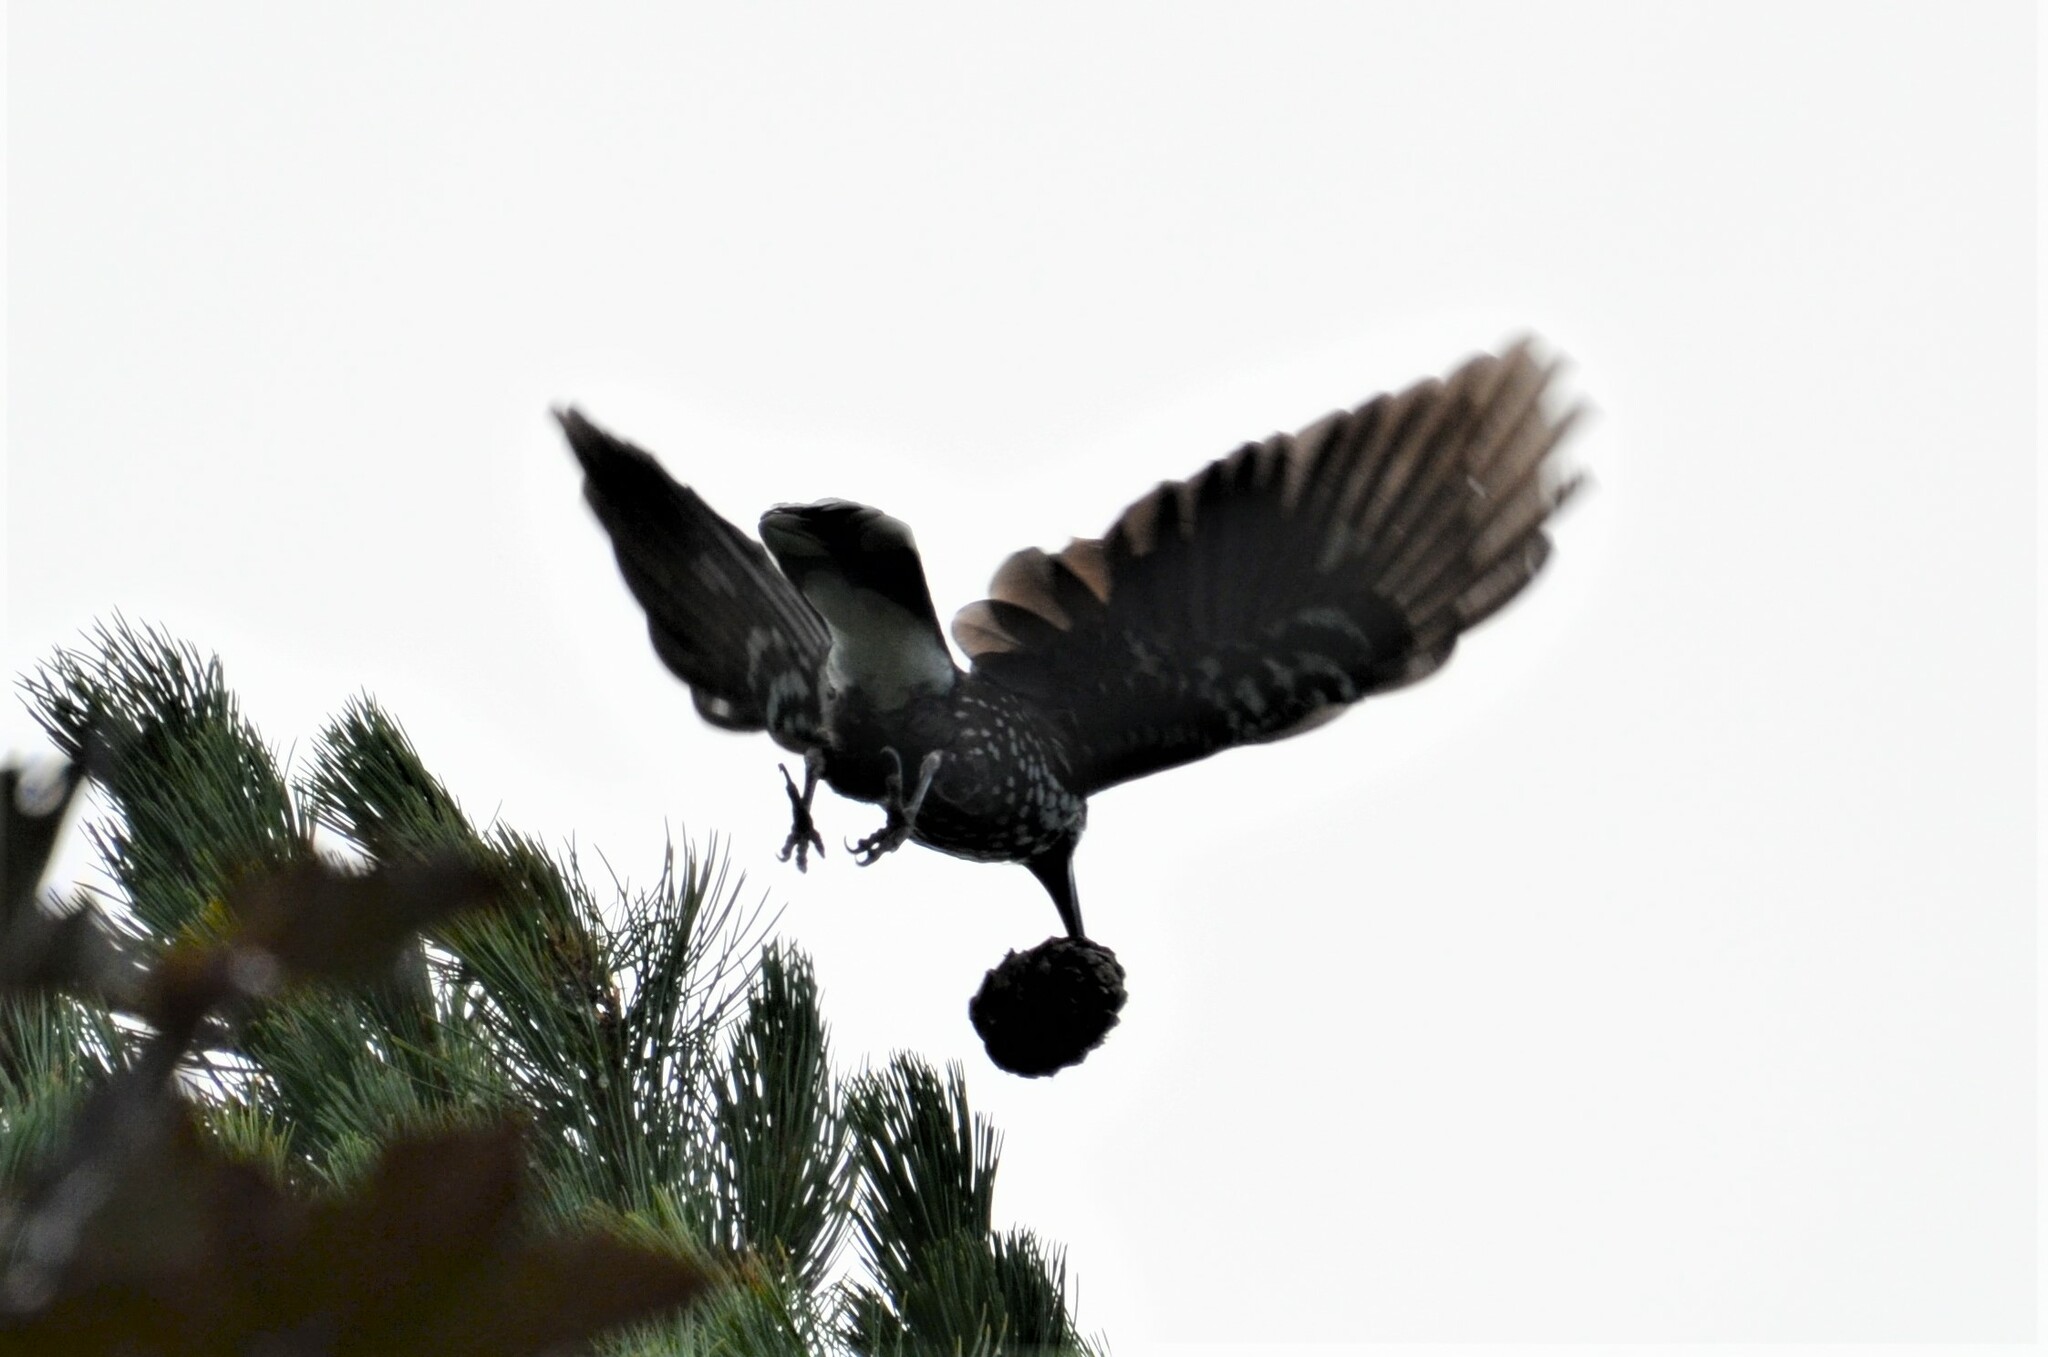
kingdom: Animalia
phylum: Chordata
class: Aves
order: Passeriformes
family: Corvidae
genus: Nucifraga
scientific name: Nucifraga caryocatactes
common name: Spotted nutcracker
